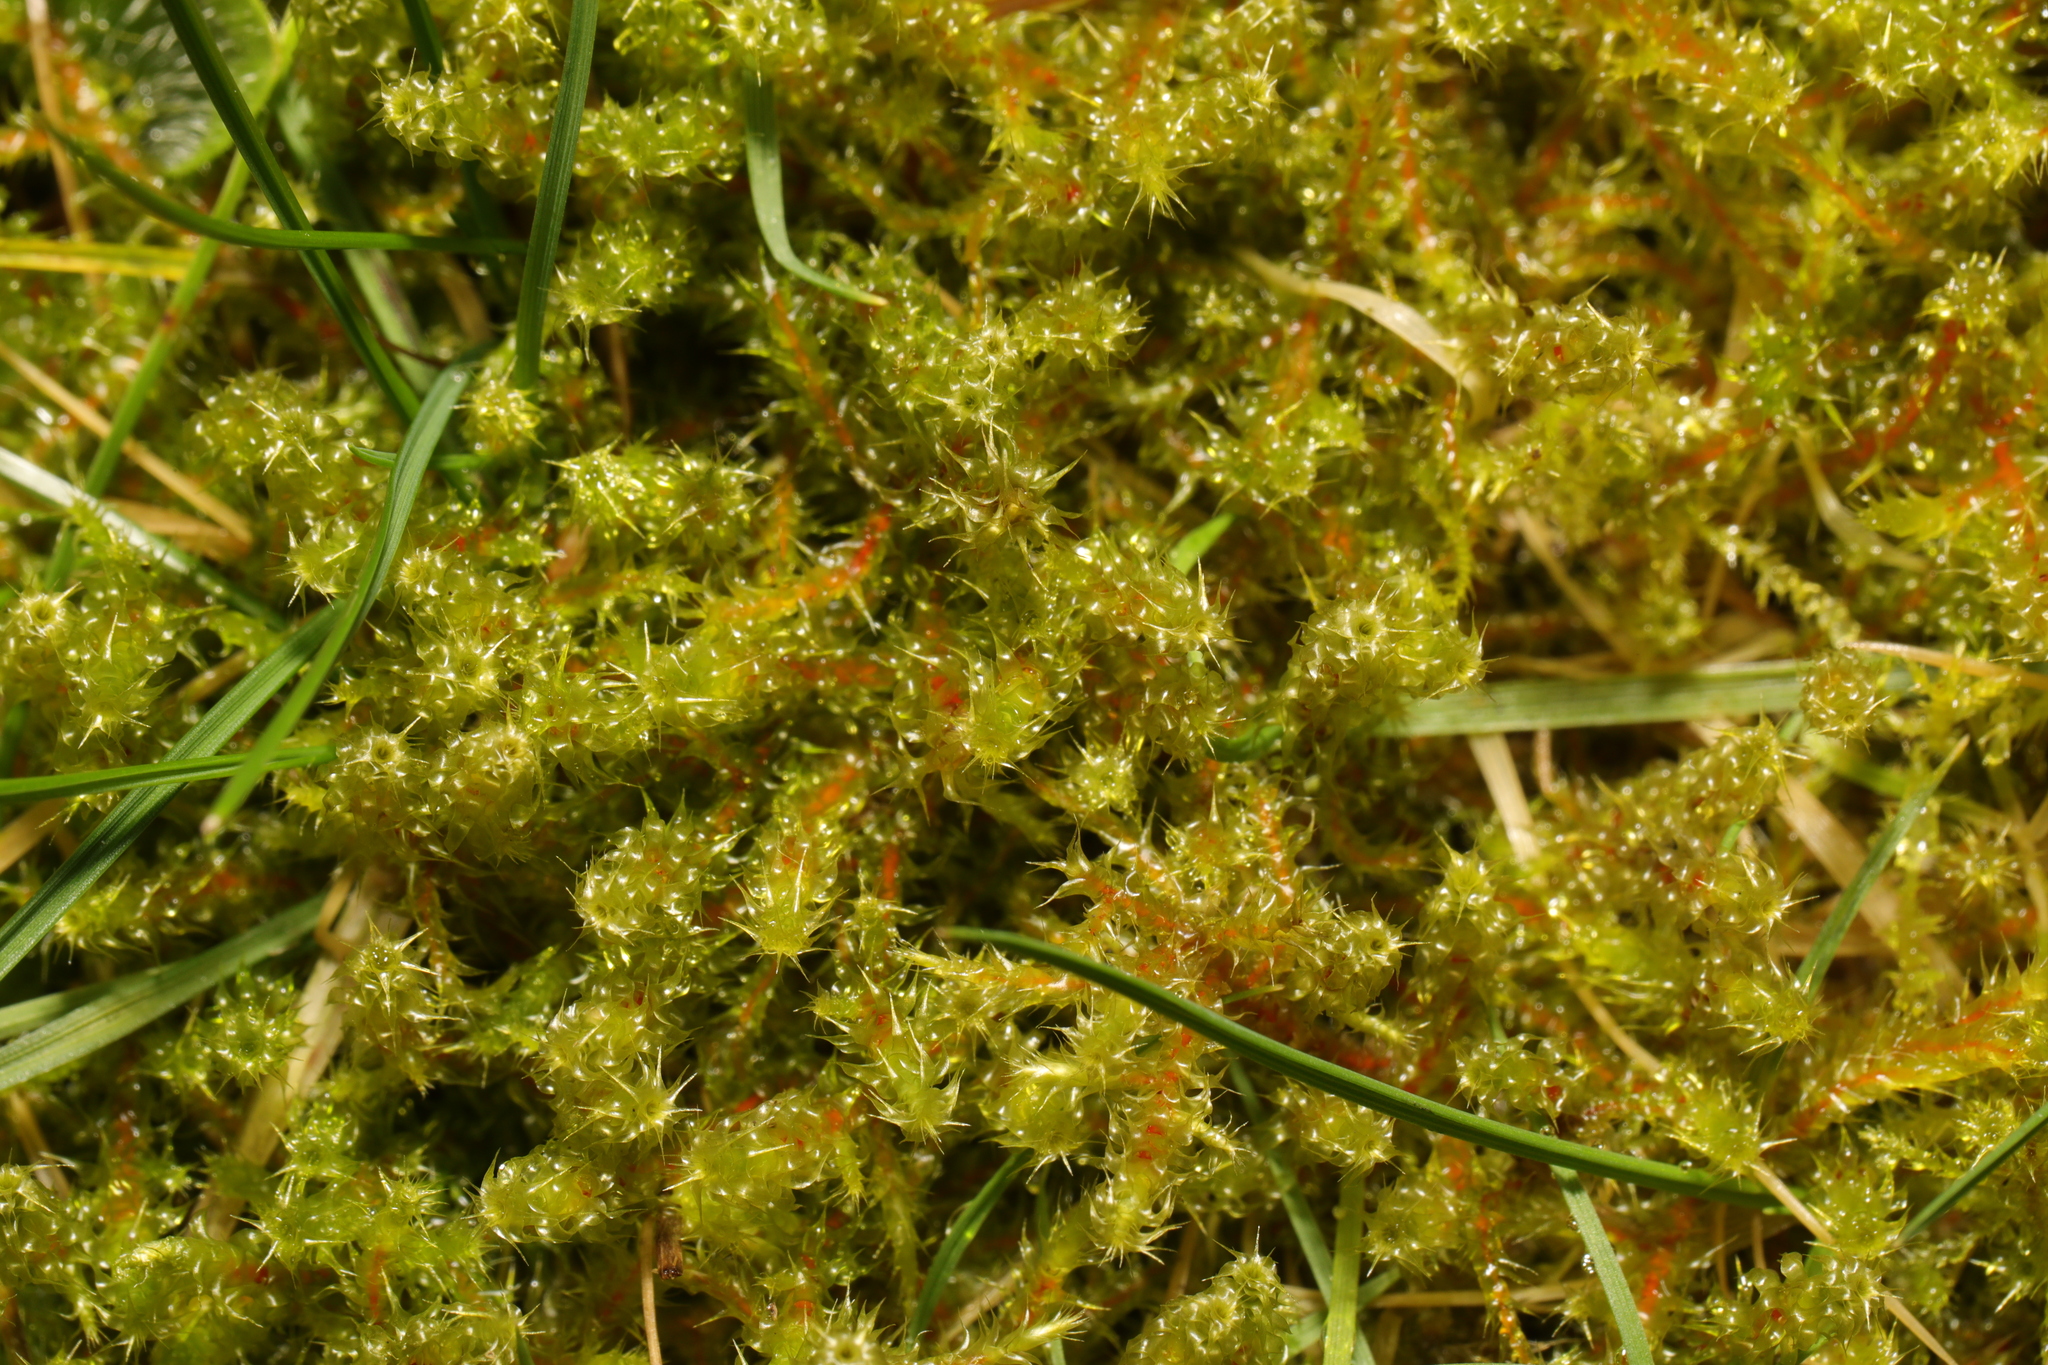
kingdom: Plantae
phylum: Bryophyta
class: Bryopsida
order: Hypnales
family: Hylocomiaceae
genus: Rhytidiadelphus
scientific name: Rhytidiadelphus squarrosus
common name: Springy turf-moss
